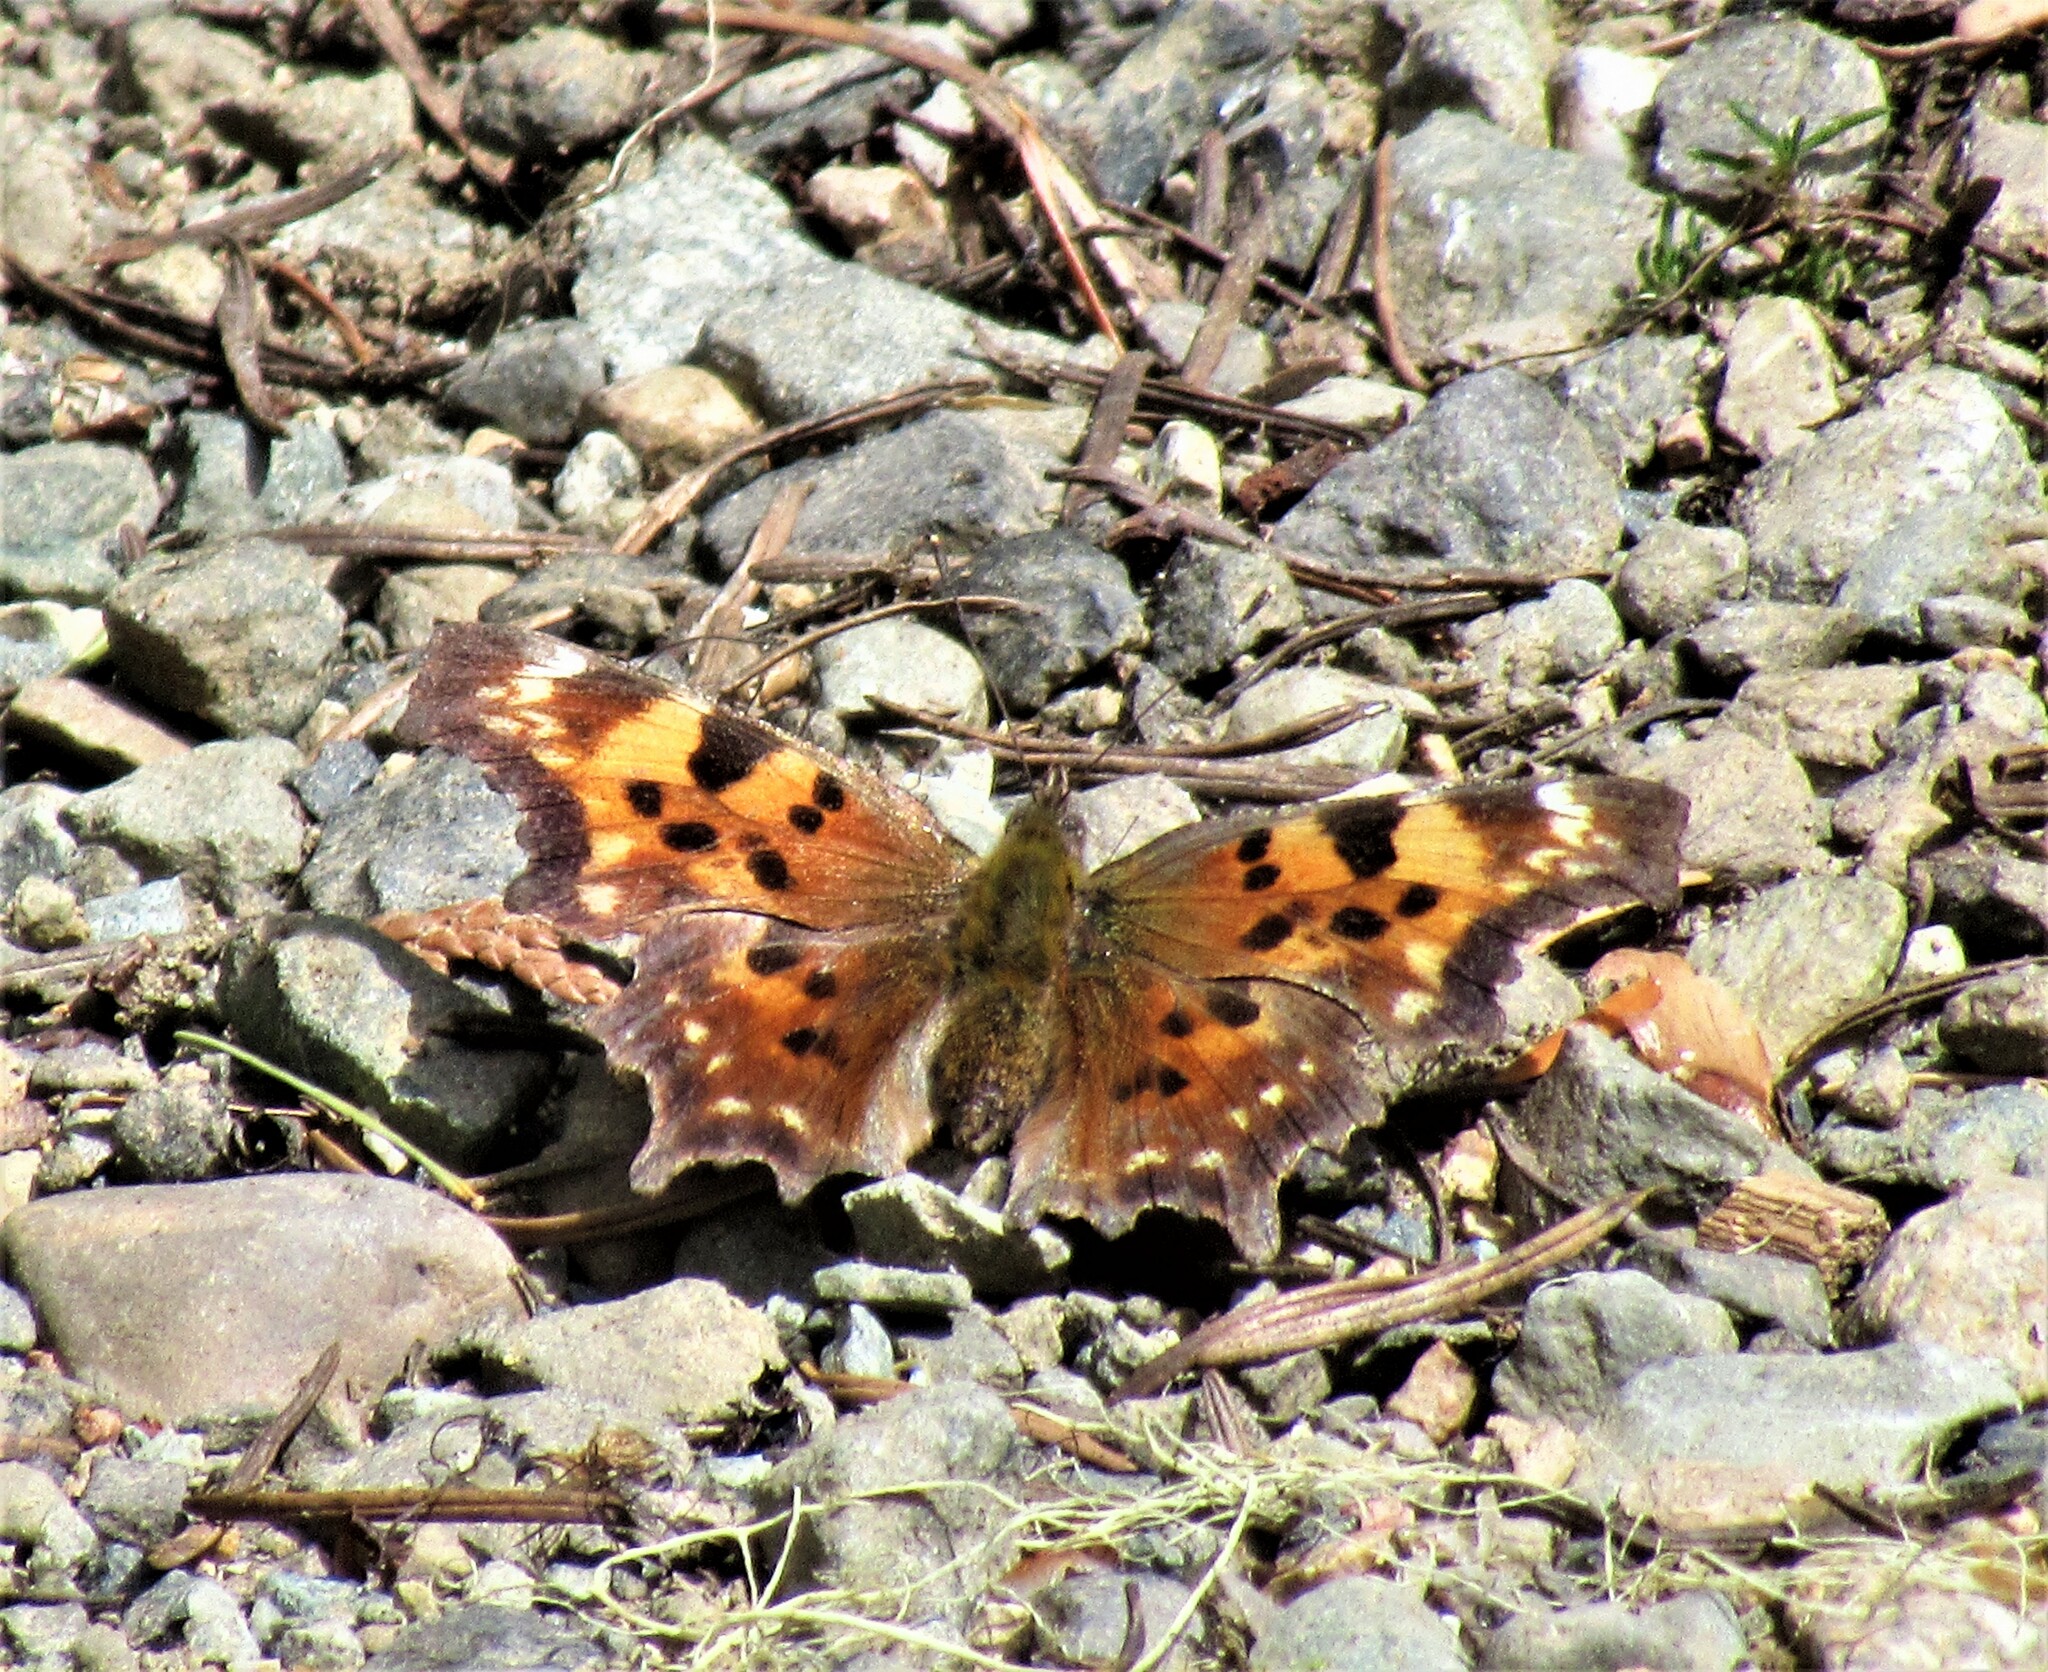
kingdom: Animalia
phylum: Arthropoda
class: Insecta
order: Lepidoptera
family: Nymphalidae
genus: Polygonia
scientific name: Polygonia faunus
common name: Green comma
